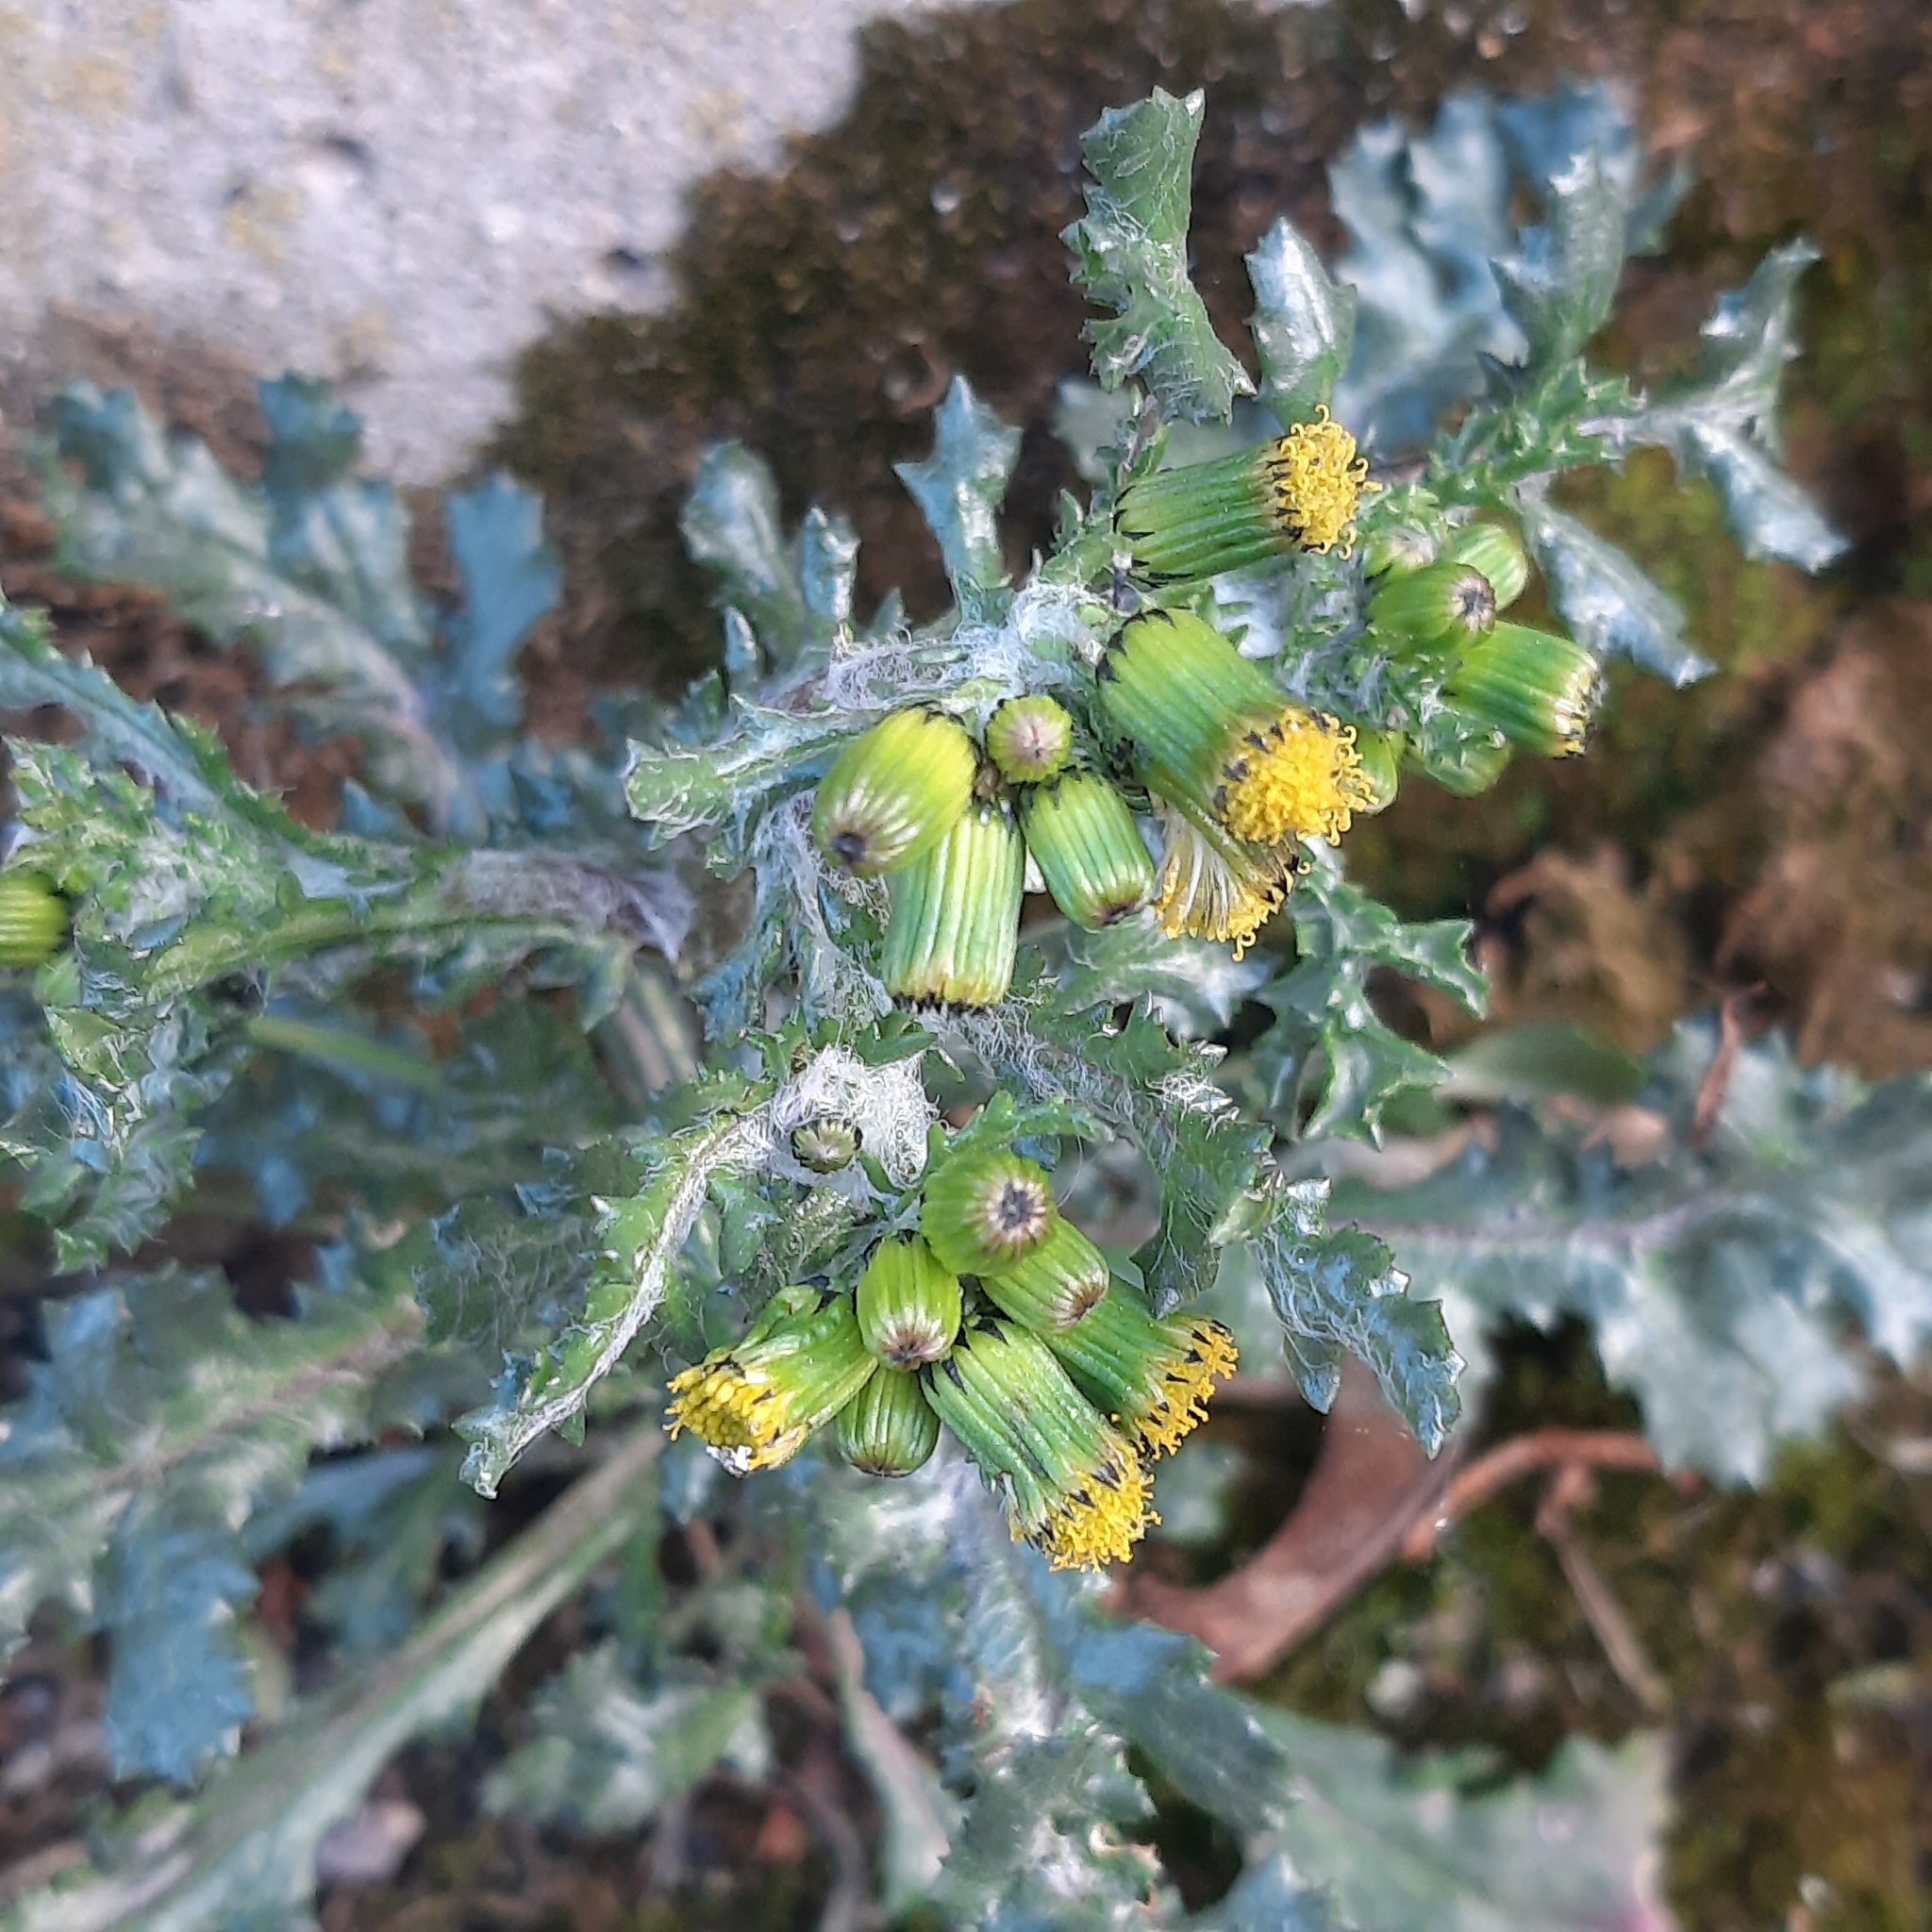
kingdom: Plantae
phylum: Tracheophyta
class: Magnoliopsida
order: Asterales
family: Asteraceae
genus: Senecio
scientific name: Senecio vulgaris
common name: Old-man-in-the-spring
